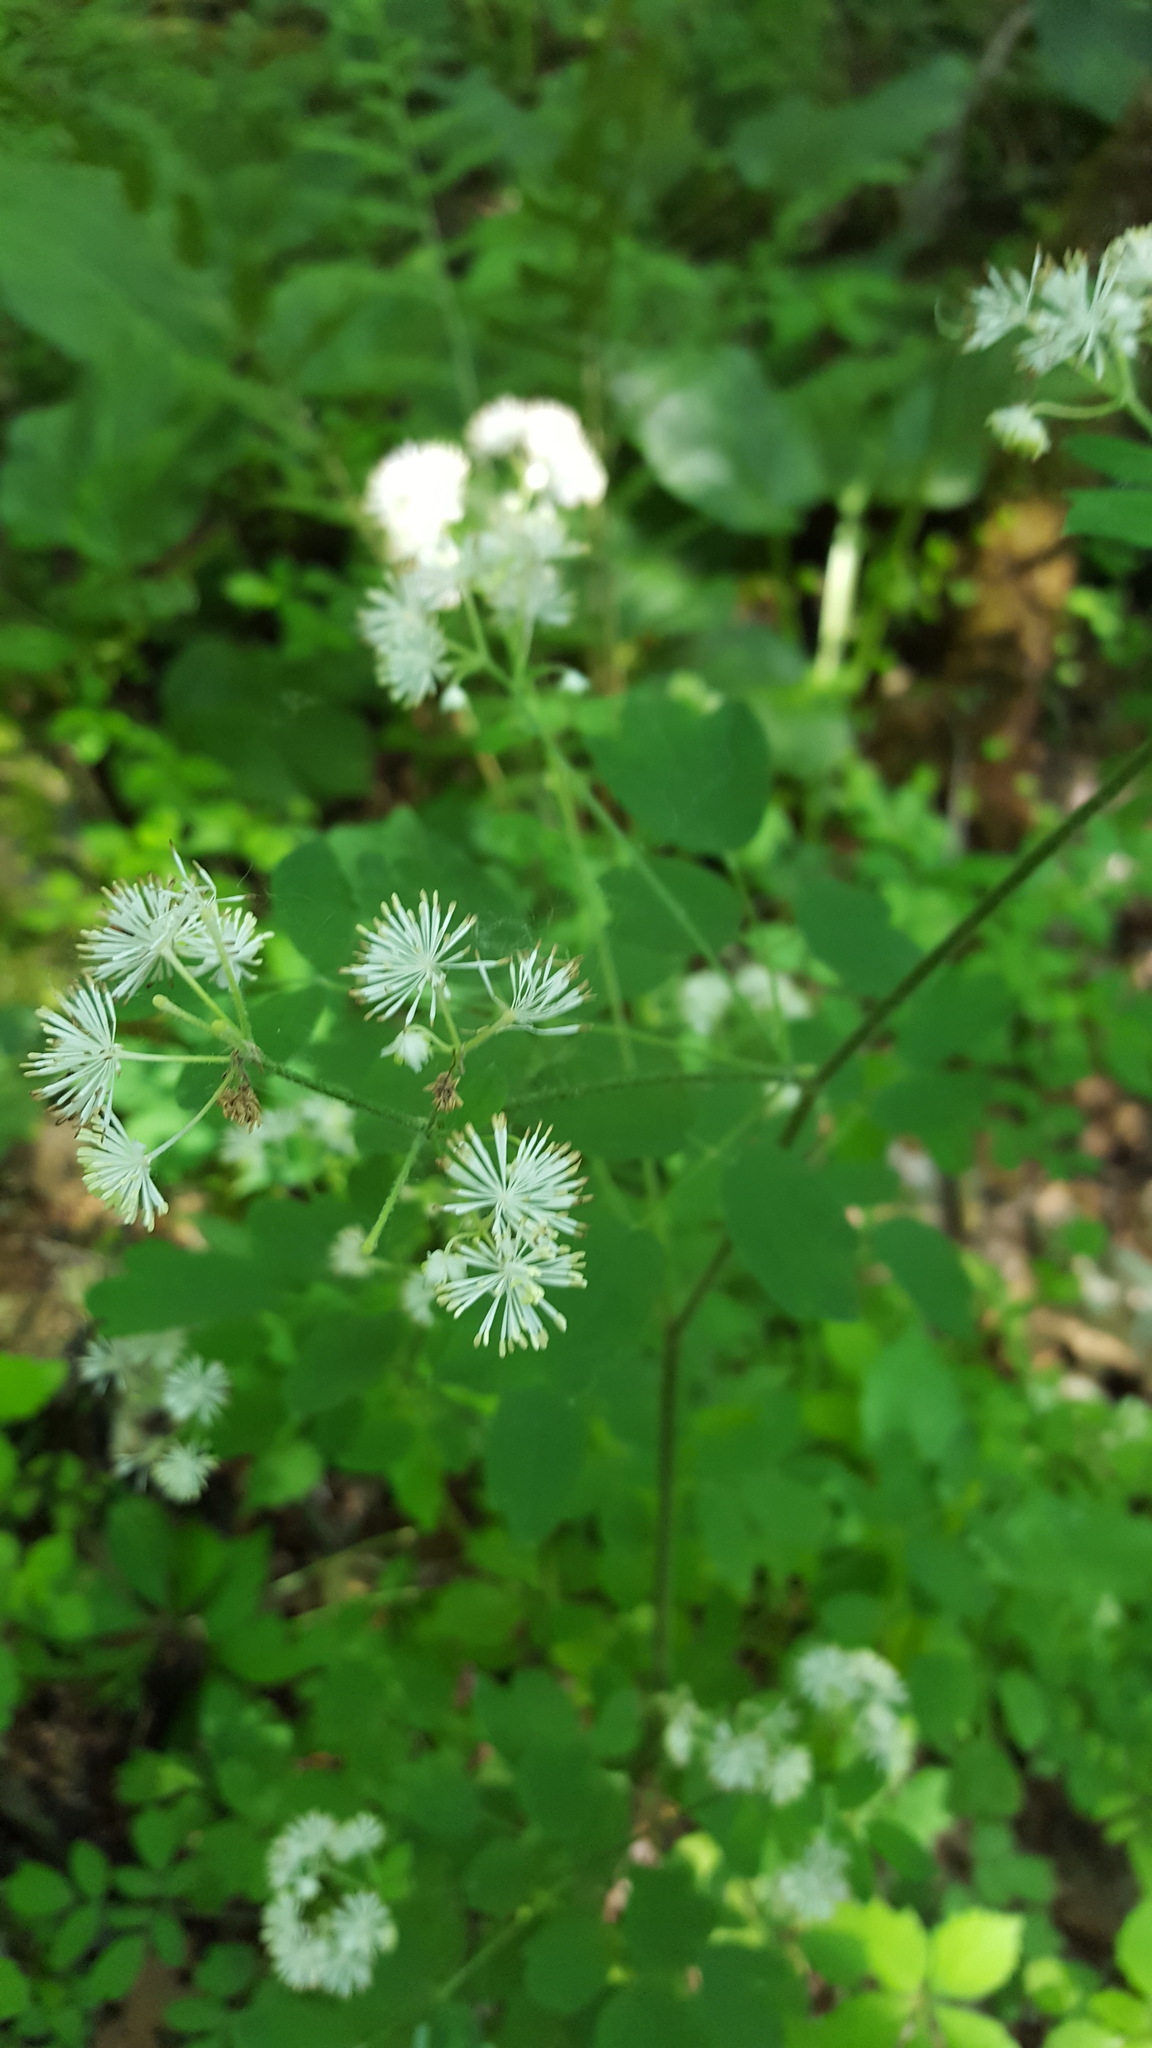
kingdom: Plantae
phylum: Tracheophyta
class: Magnoliopsida
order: Ranunculales
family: Ranunculaceae
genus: Thalictrum
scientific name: Thalictrum pubescens
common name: King-of-the-meadow
